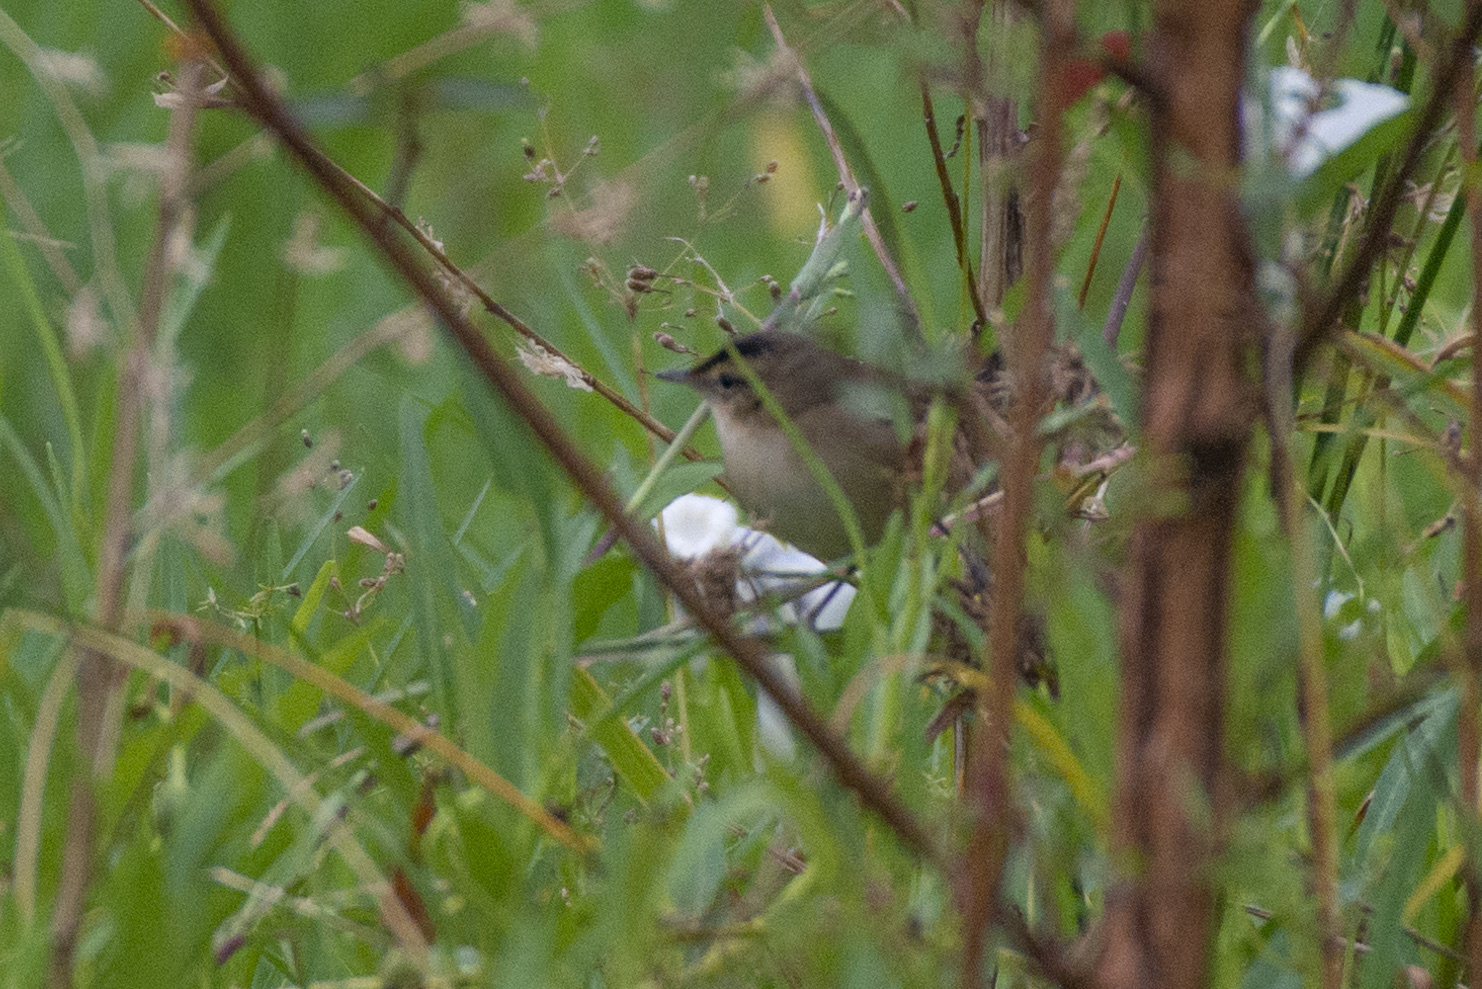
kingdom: Animalia
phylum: Chordata
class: Aves
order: Passeriformes
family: Acrocephalidae
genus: Acrocephalus
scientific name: Acrocephalus bistrigiceps
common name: Black-browed reed warbler
